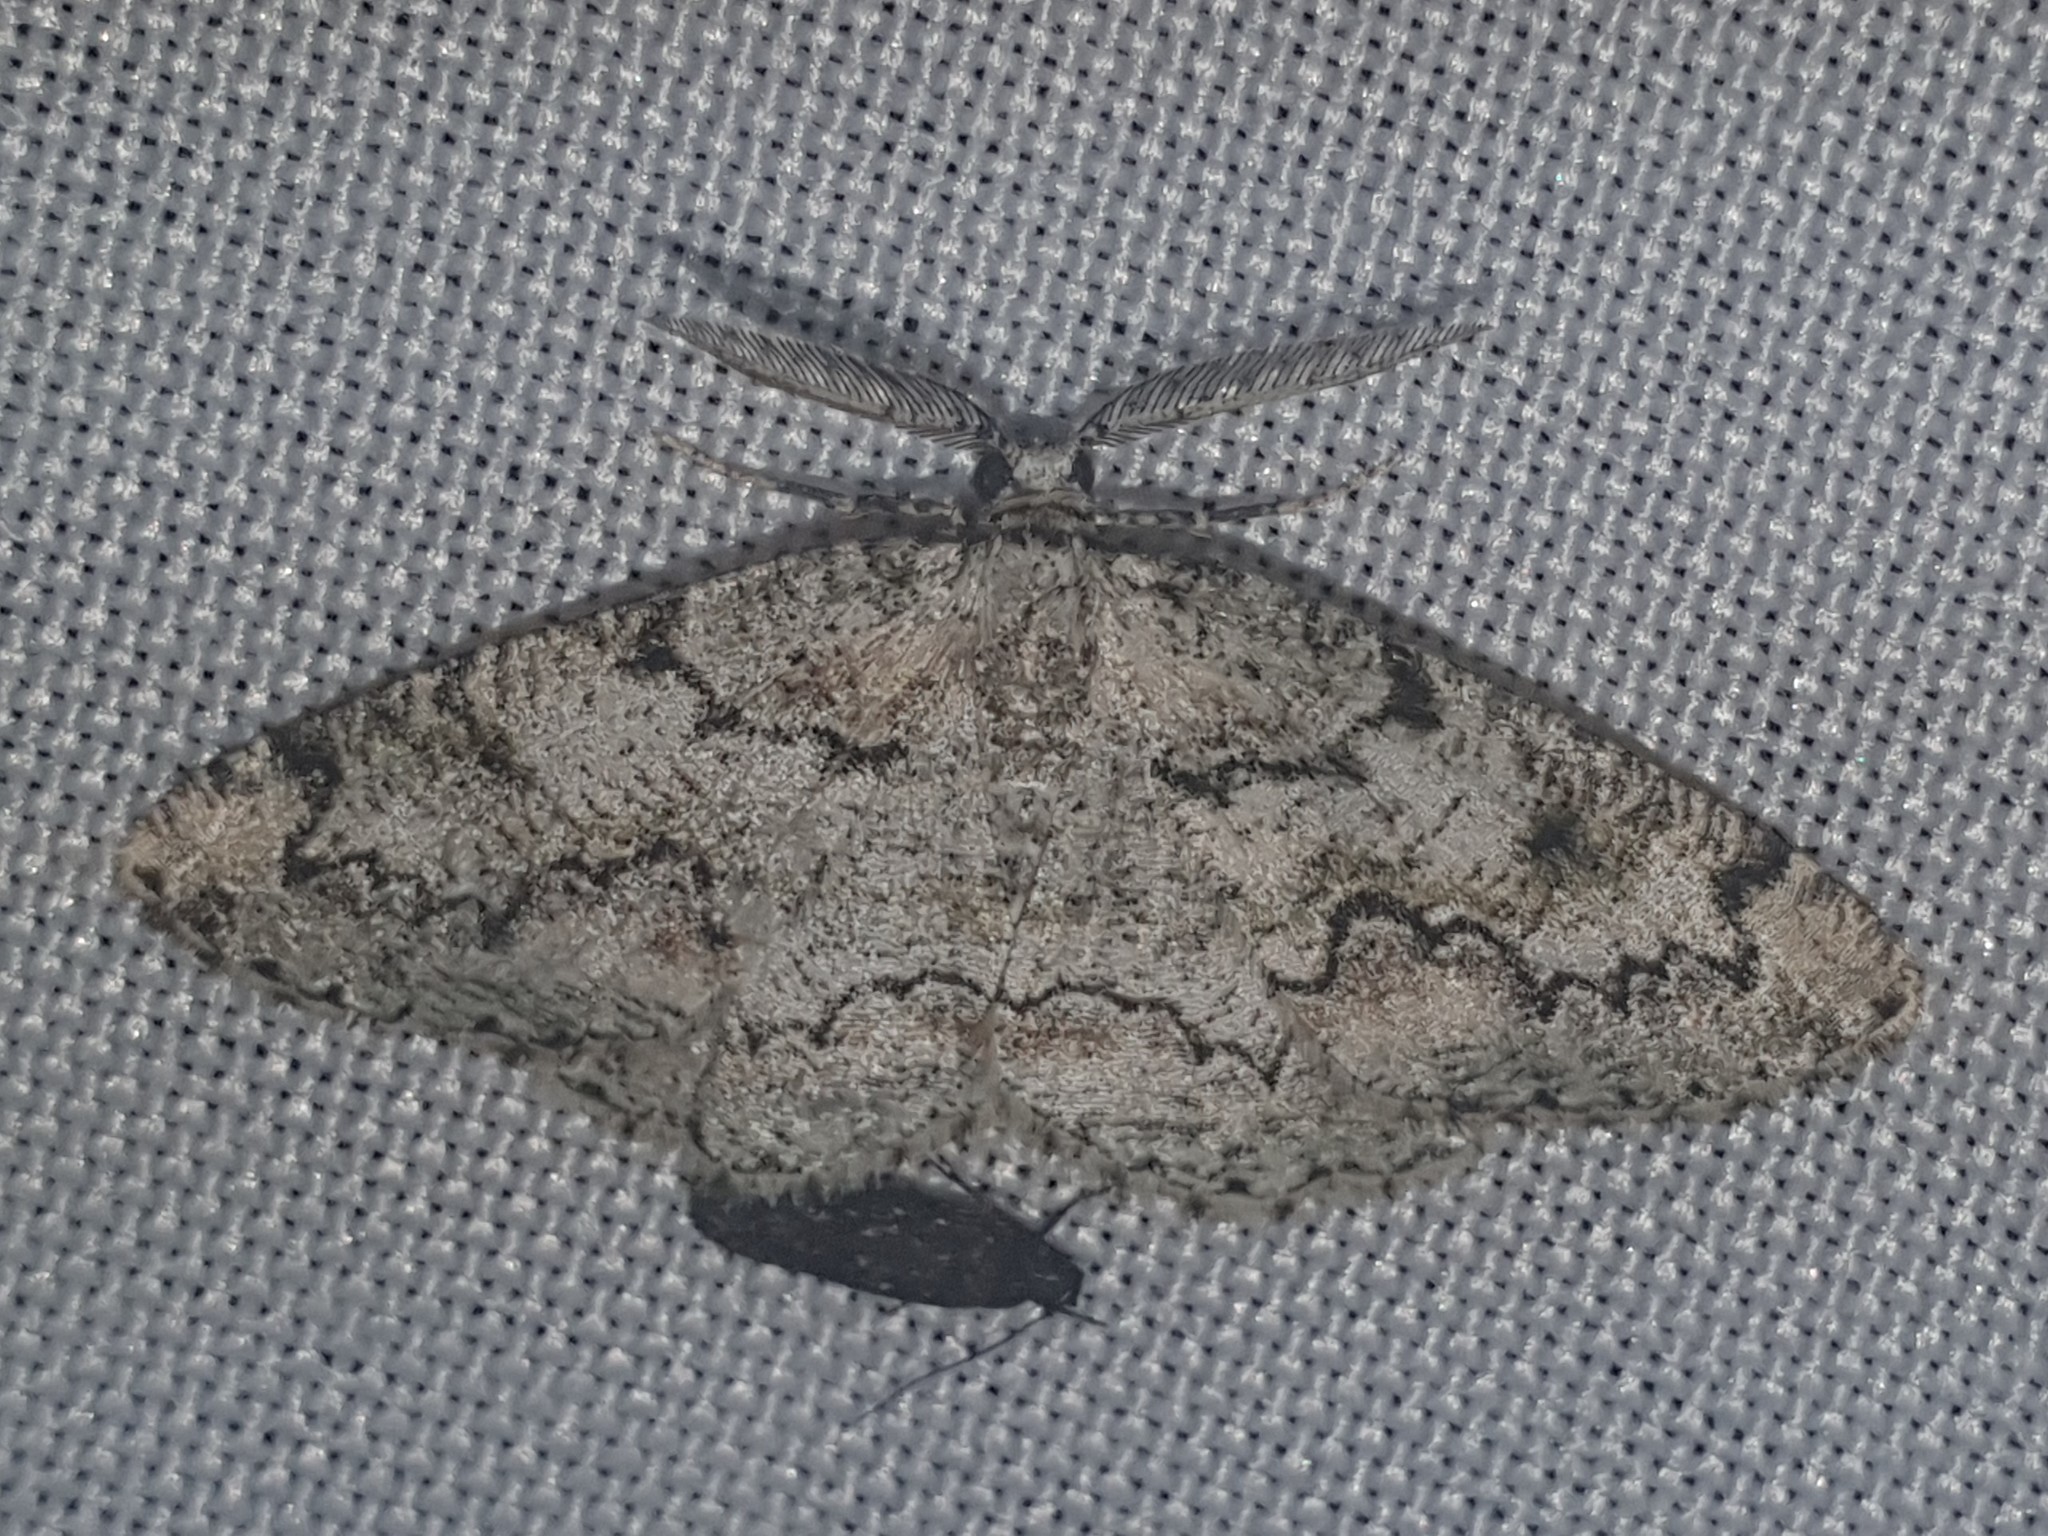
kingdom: Animalia
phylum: Arthropoda
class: Insecta
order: Lepidoptera
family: Geometridae
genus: Cleorodes
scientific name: Cleorodes lichenaria
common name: Brussels lace
